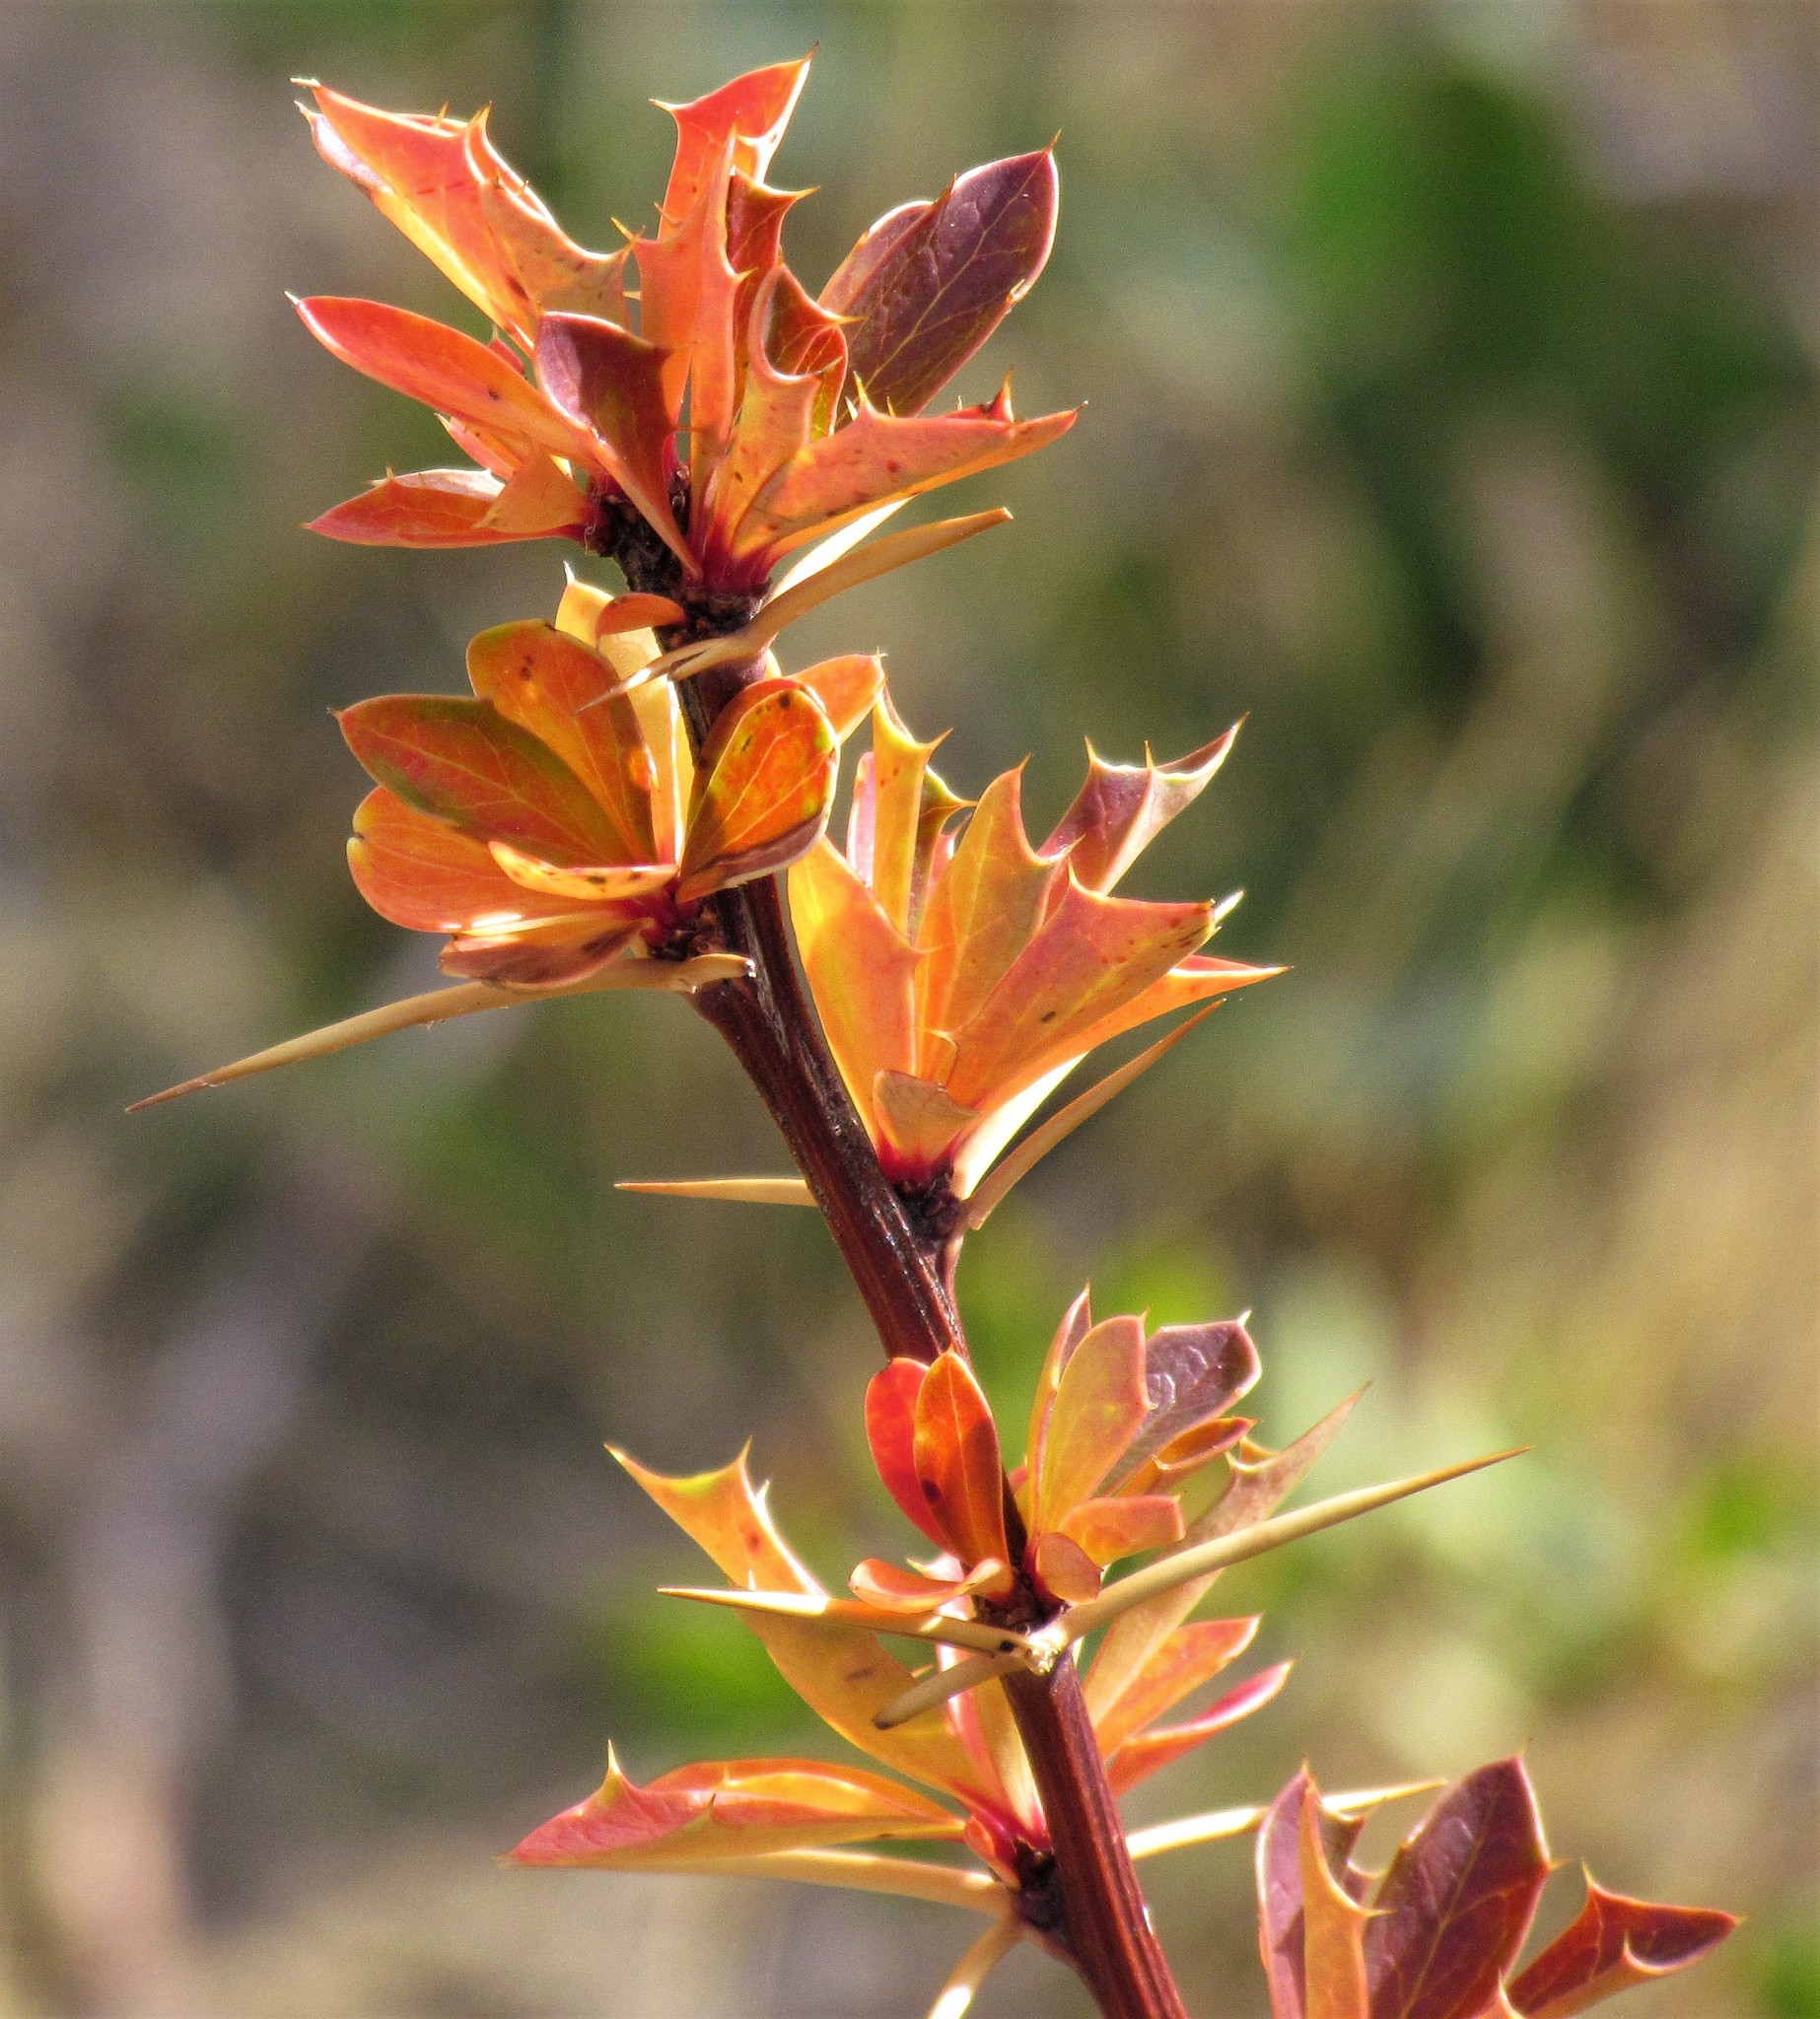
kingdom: Plantae
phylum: Tracheophyta
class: Magnoliopsida
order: Ranunculales
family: Berberidaceae
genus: Berberis
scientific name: Berberis ilicifolia
